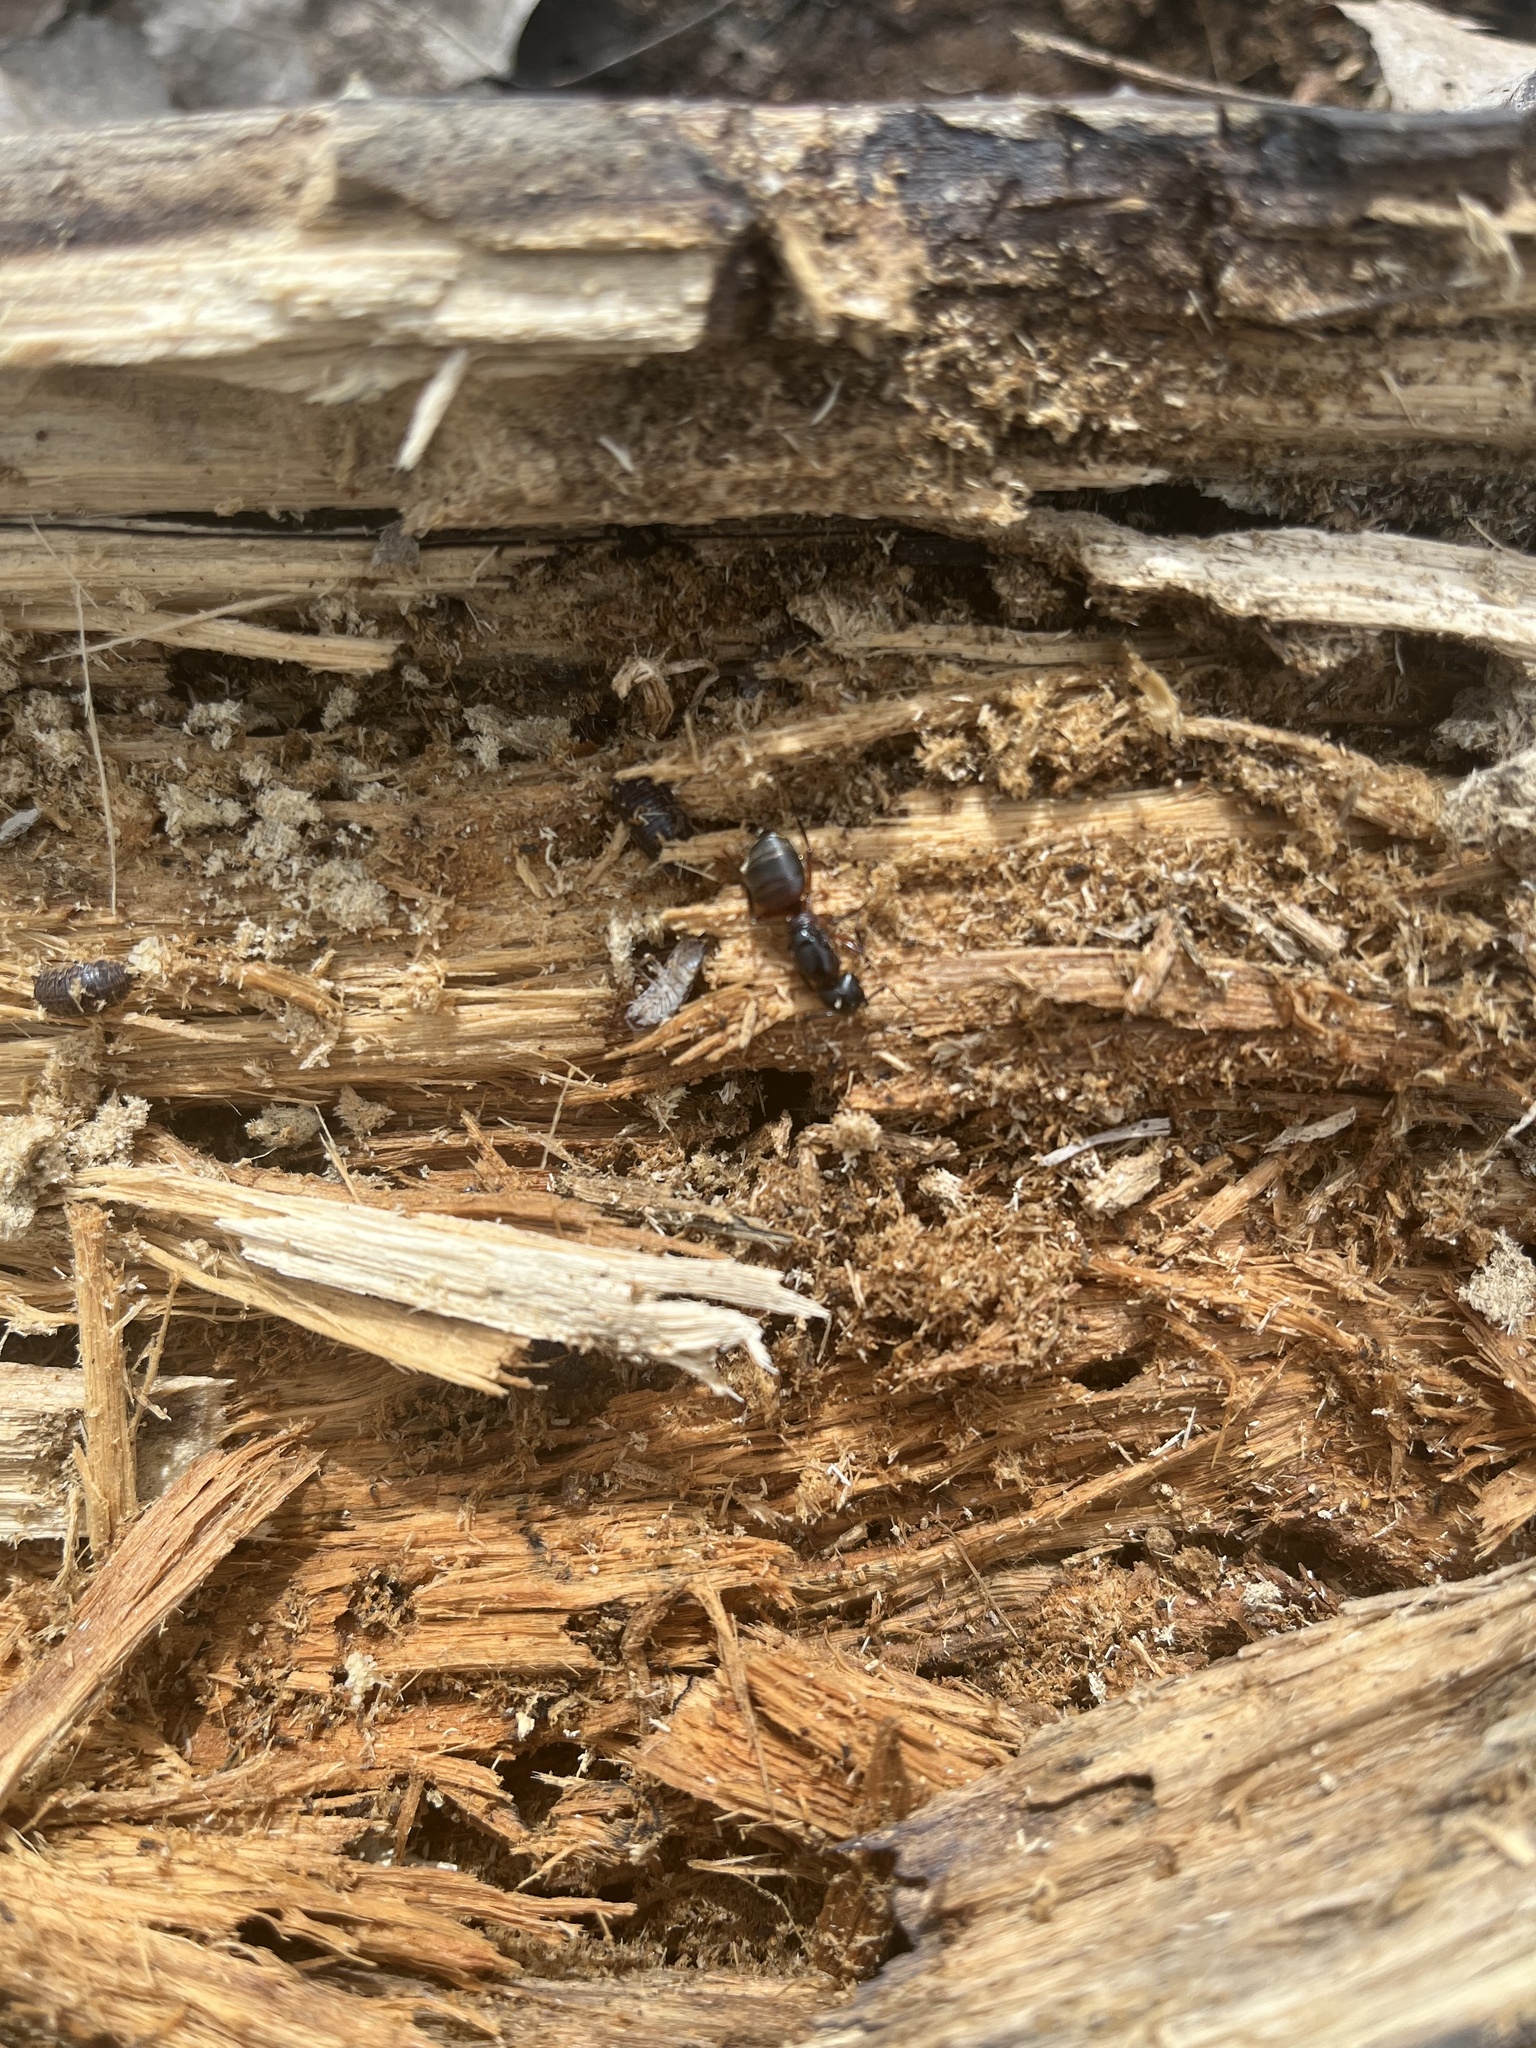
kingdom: Animalia
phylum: Arthropoda
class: Insecta
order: Hymenoptera
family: Formicidae
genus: Camponotus
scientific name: Camponotus chromaiodes
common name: Red carpenter ant
